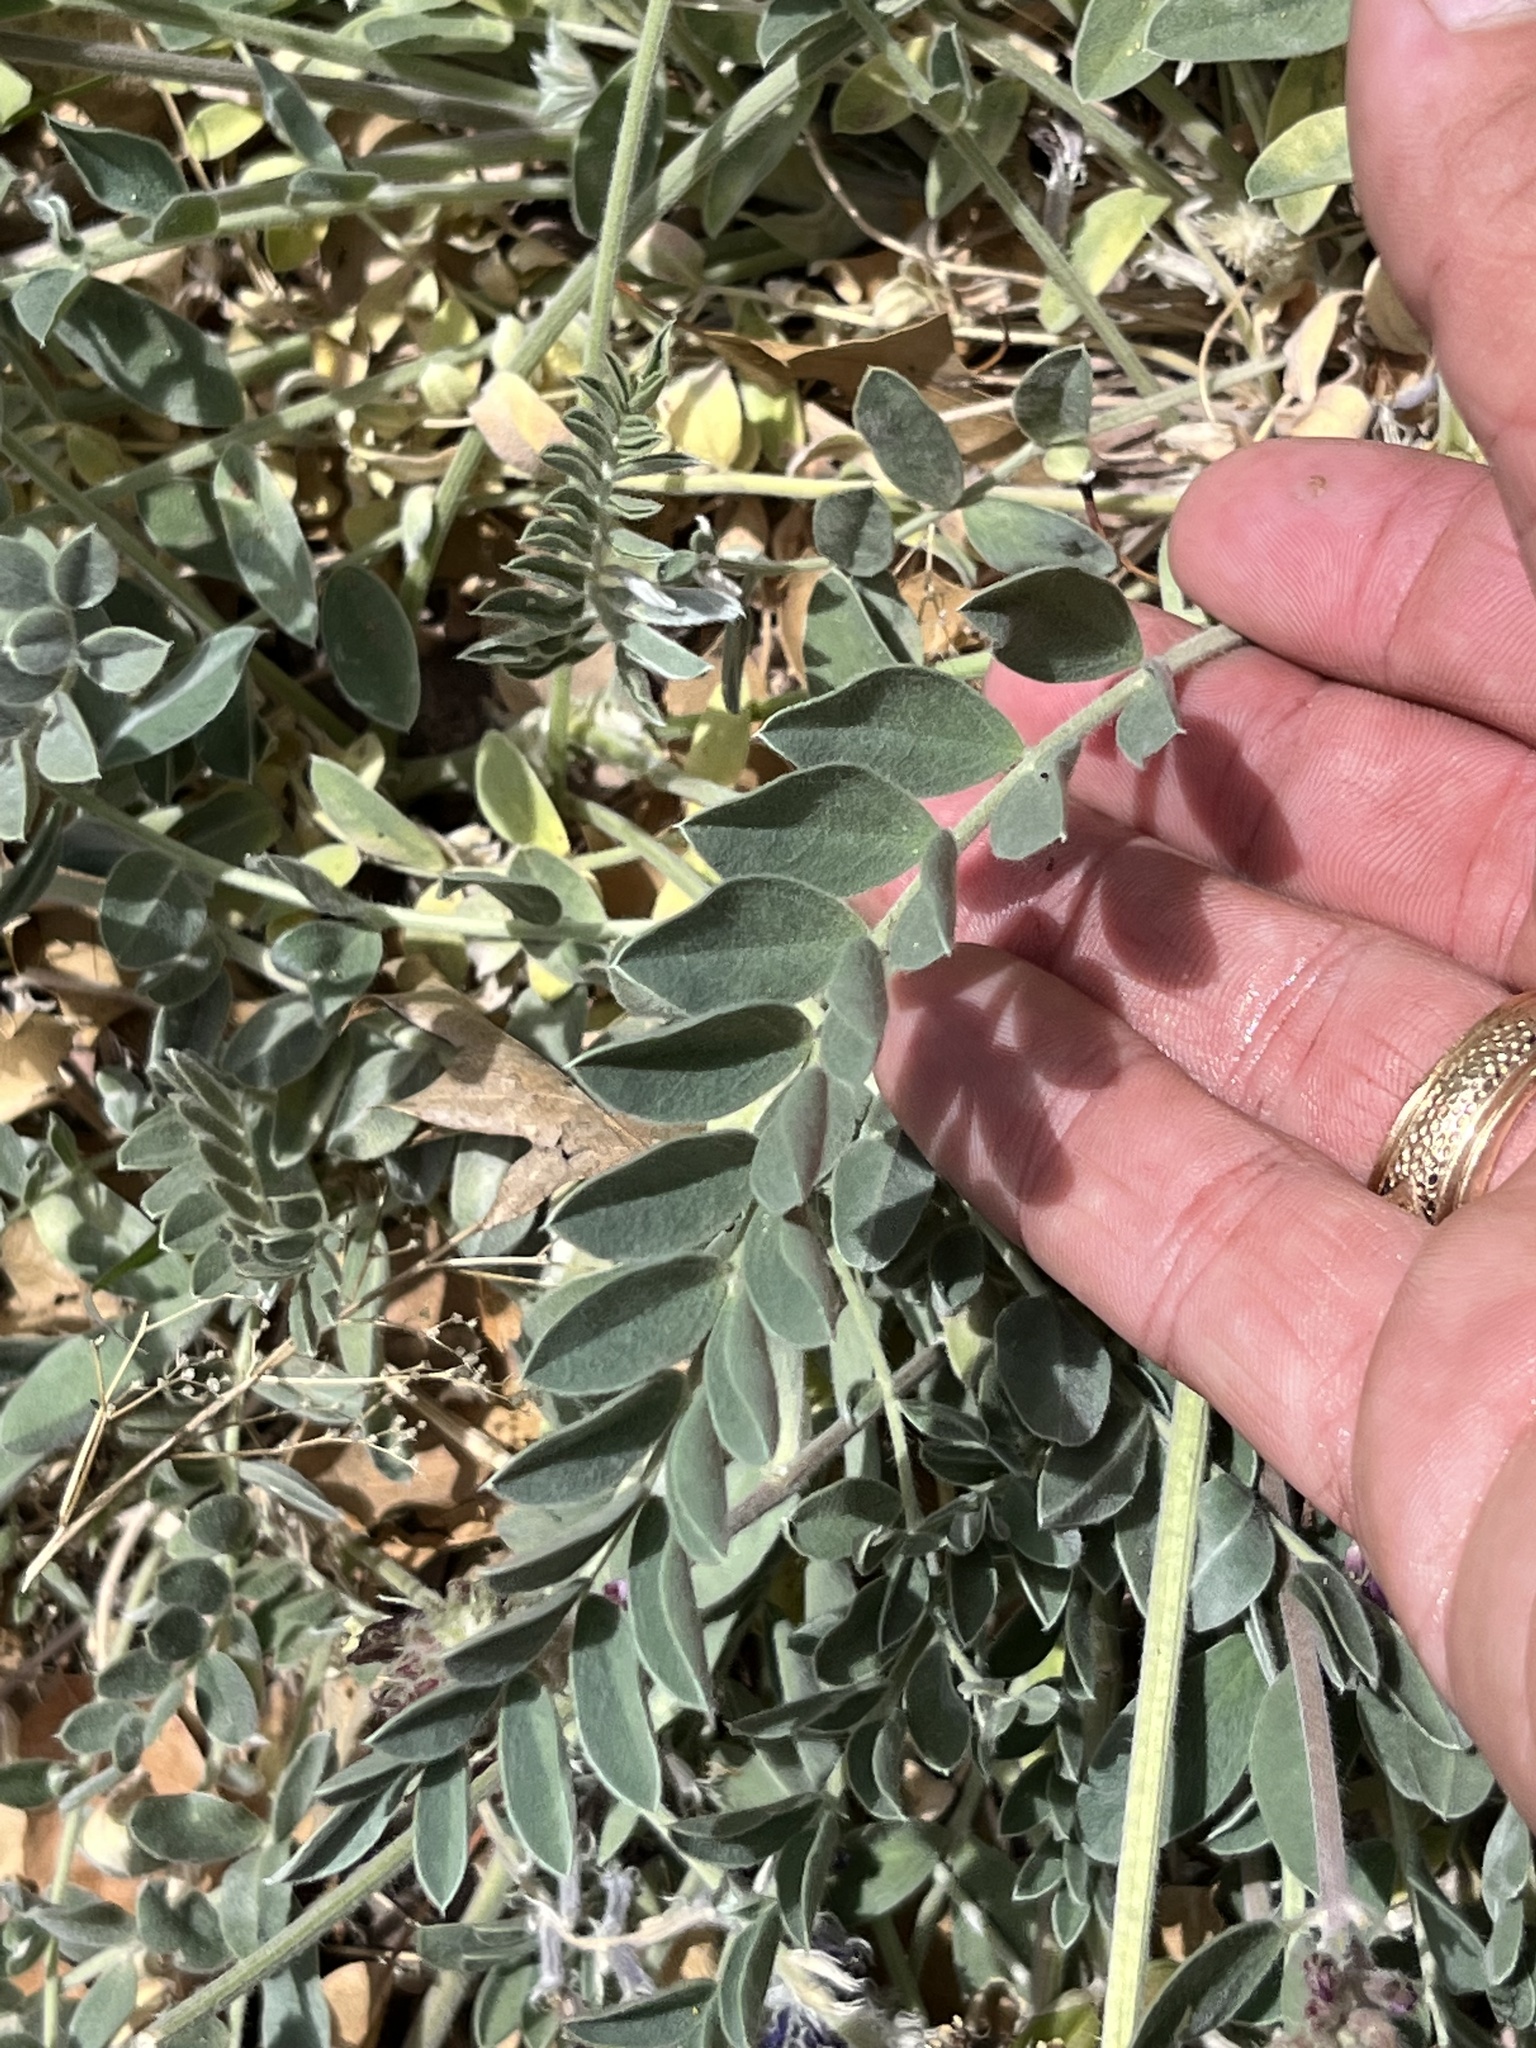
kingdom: Plantae
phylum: Tracheophyta
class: Magnoliopsida
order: Fabales
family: Fabaceae
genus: Astragalus
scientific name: Astragalus mollissimus
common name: Woolly locoweed
